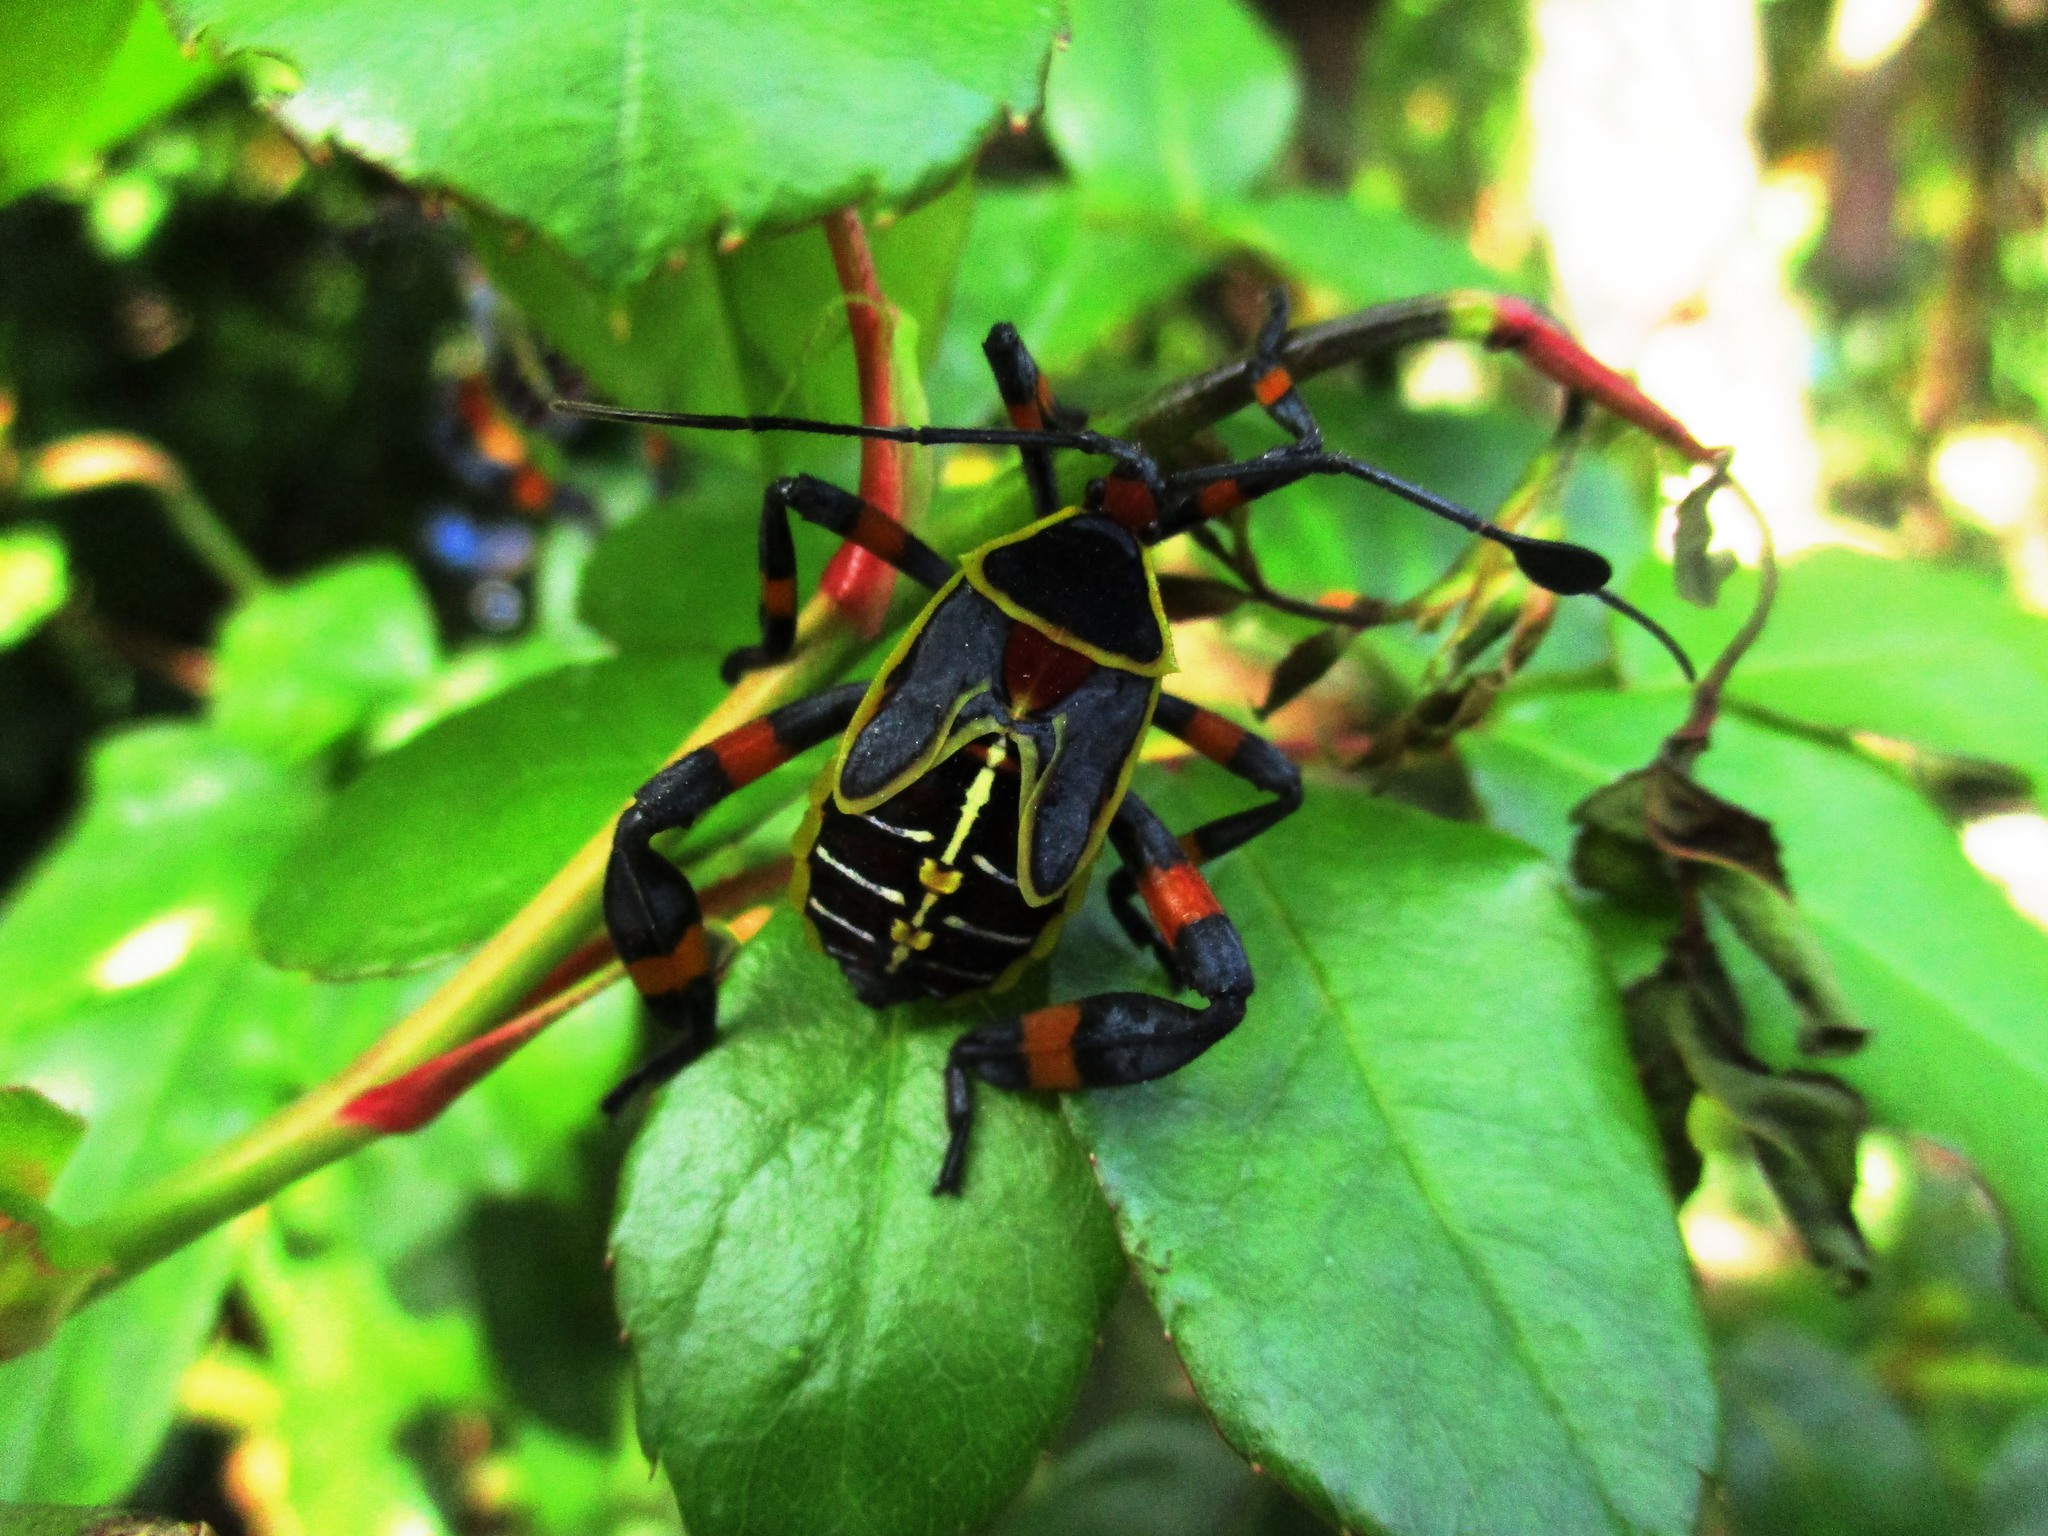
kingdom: Animalia
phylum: Arthropoda
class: Insecta
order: Hemiptera
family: Coreidae
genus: Thasus
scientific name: Thasus acutangulus
